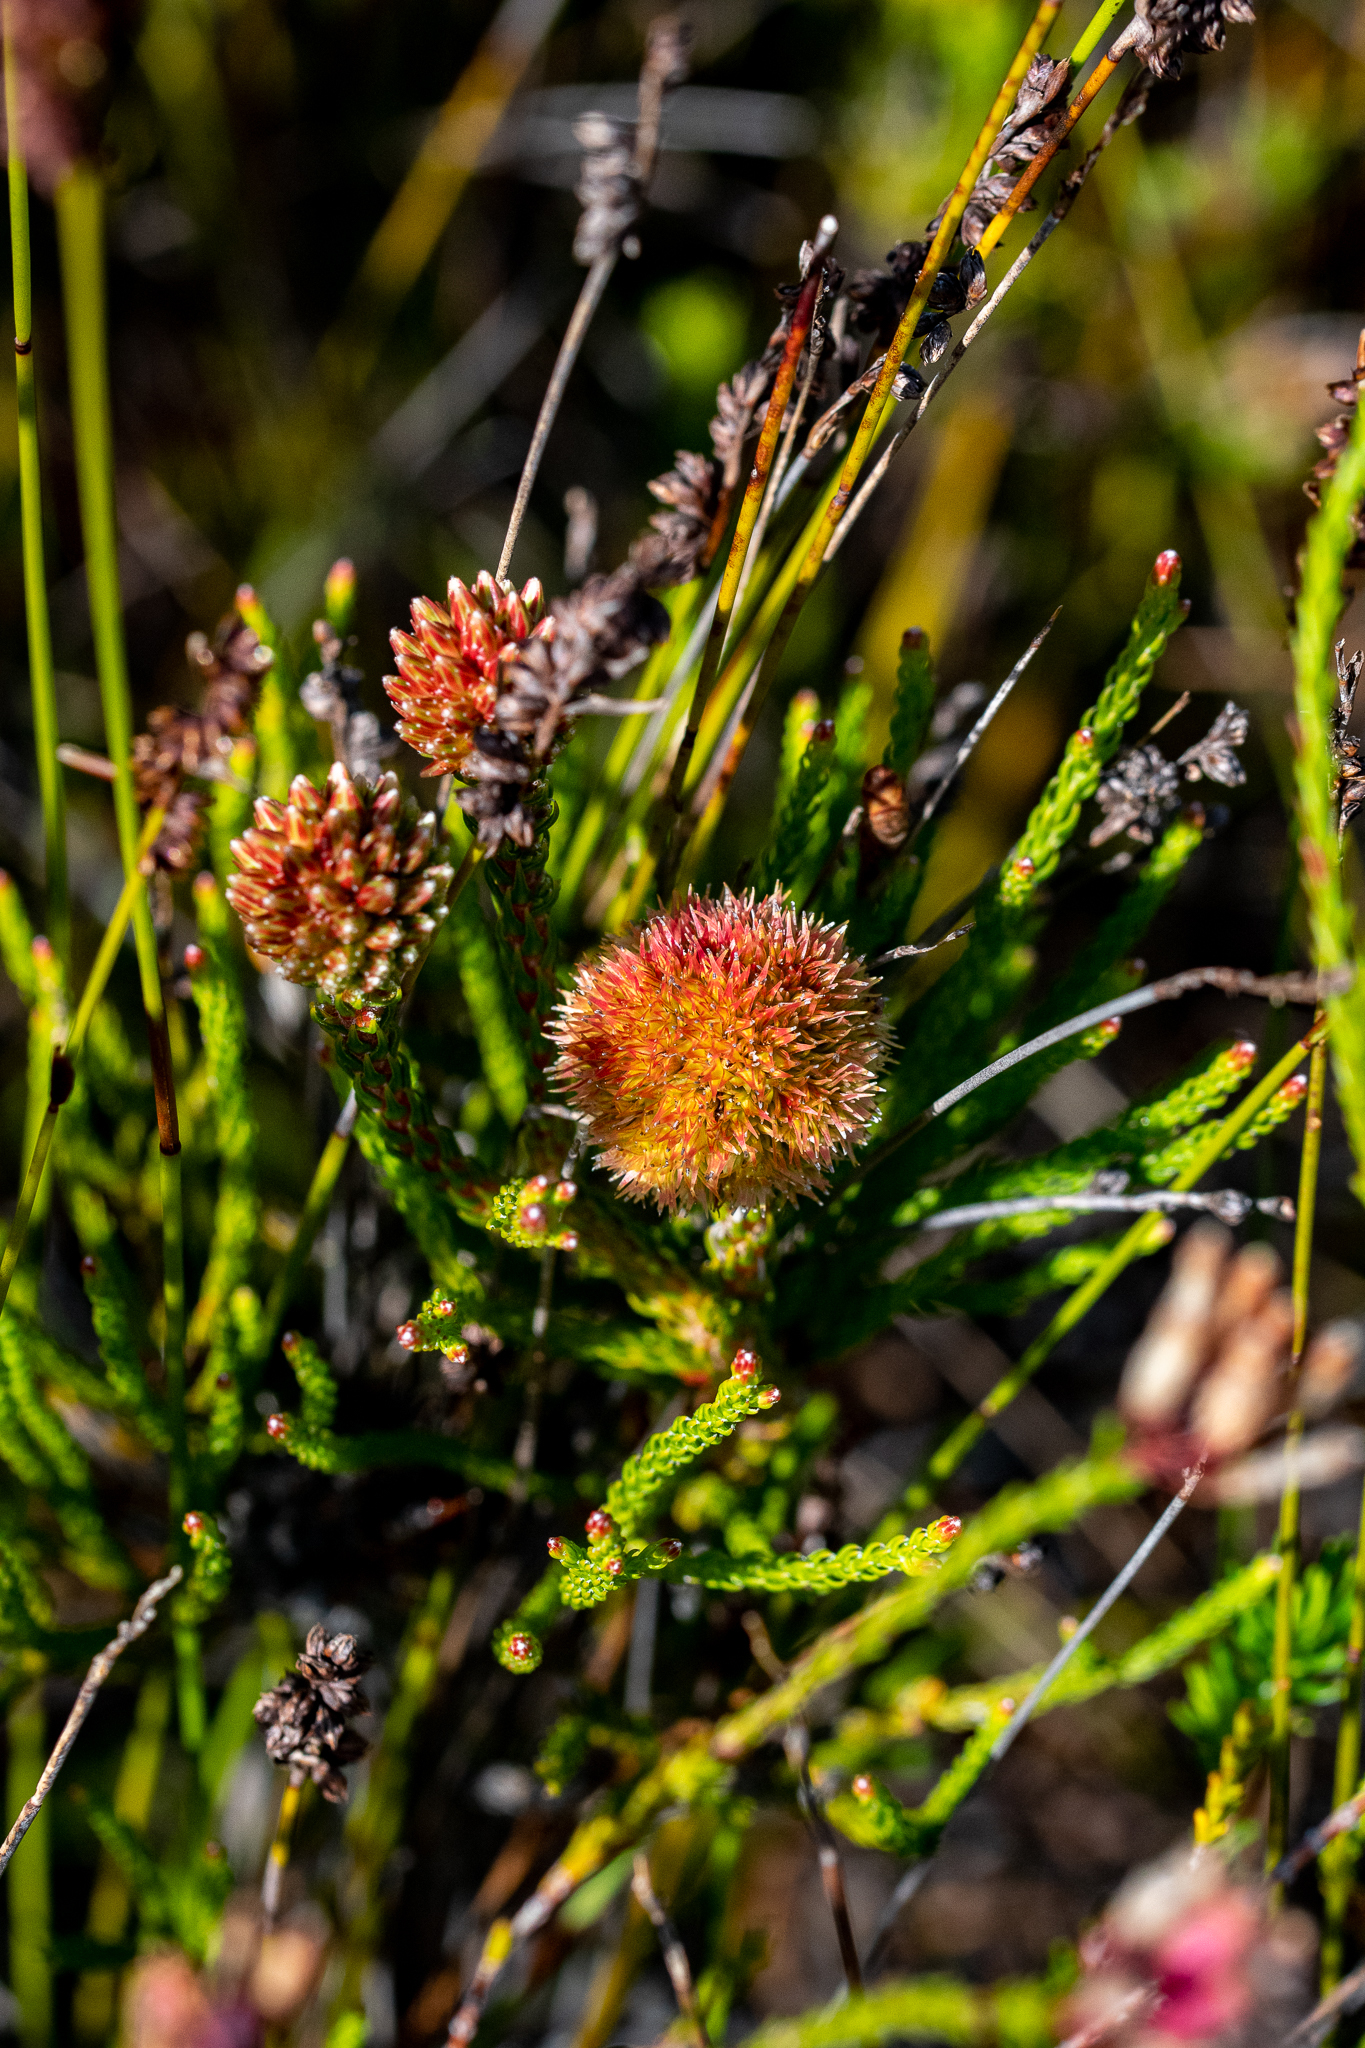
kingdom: Plantae
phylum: Tracheophyta
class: Magnoliopsida
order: Bruniales
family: Bruniaceae
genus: Brunia
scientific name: Brunia fragarioides
